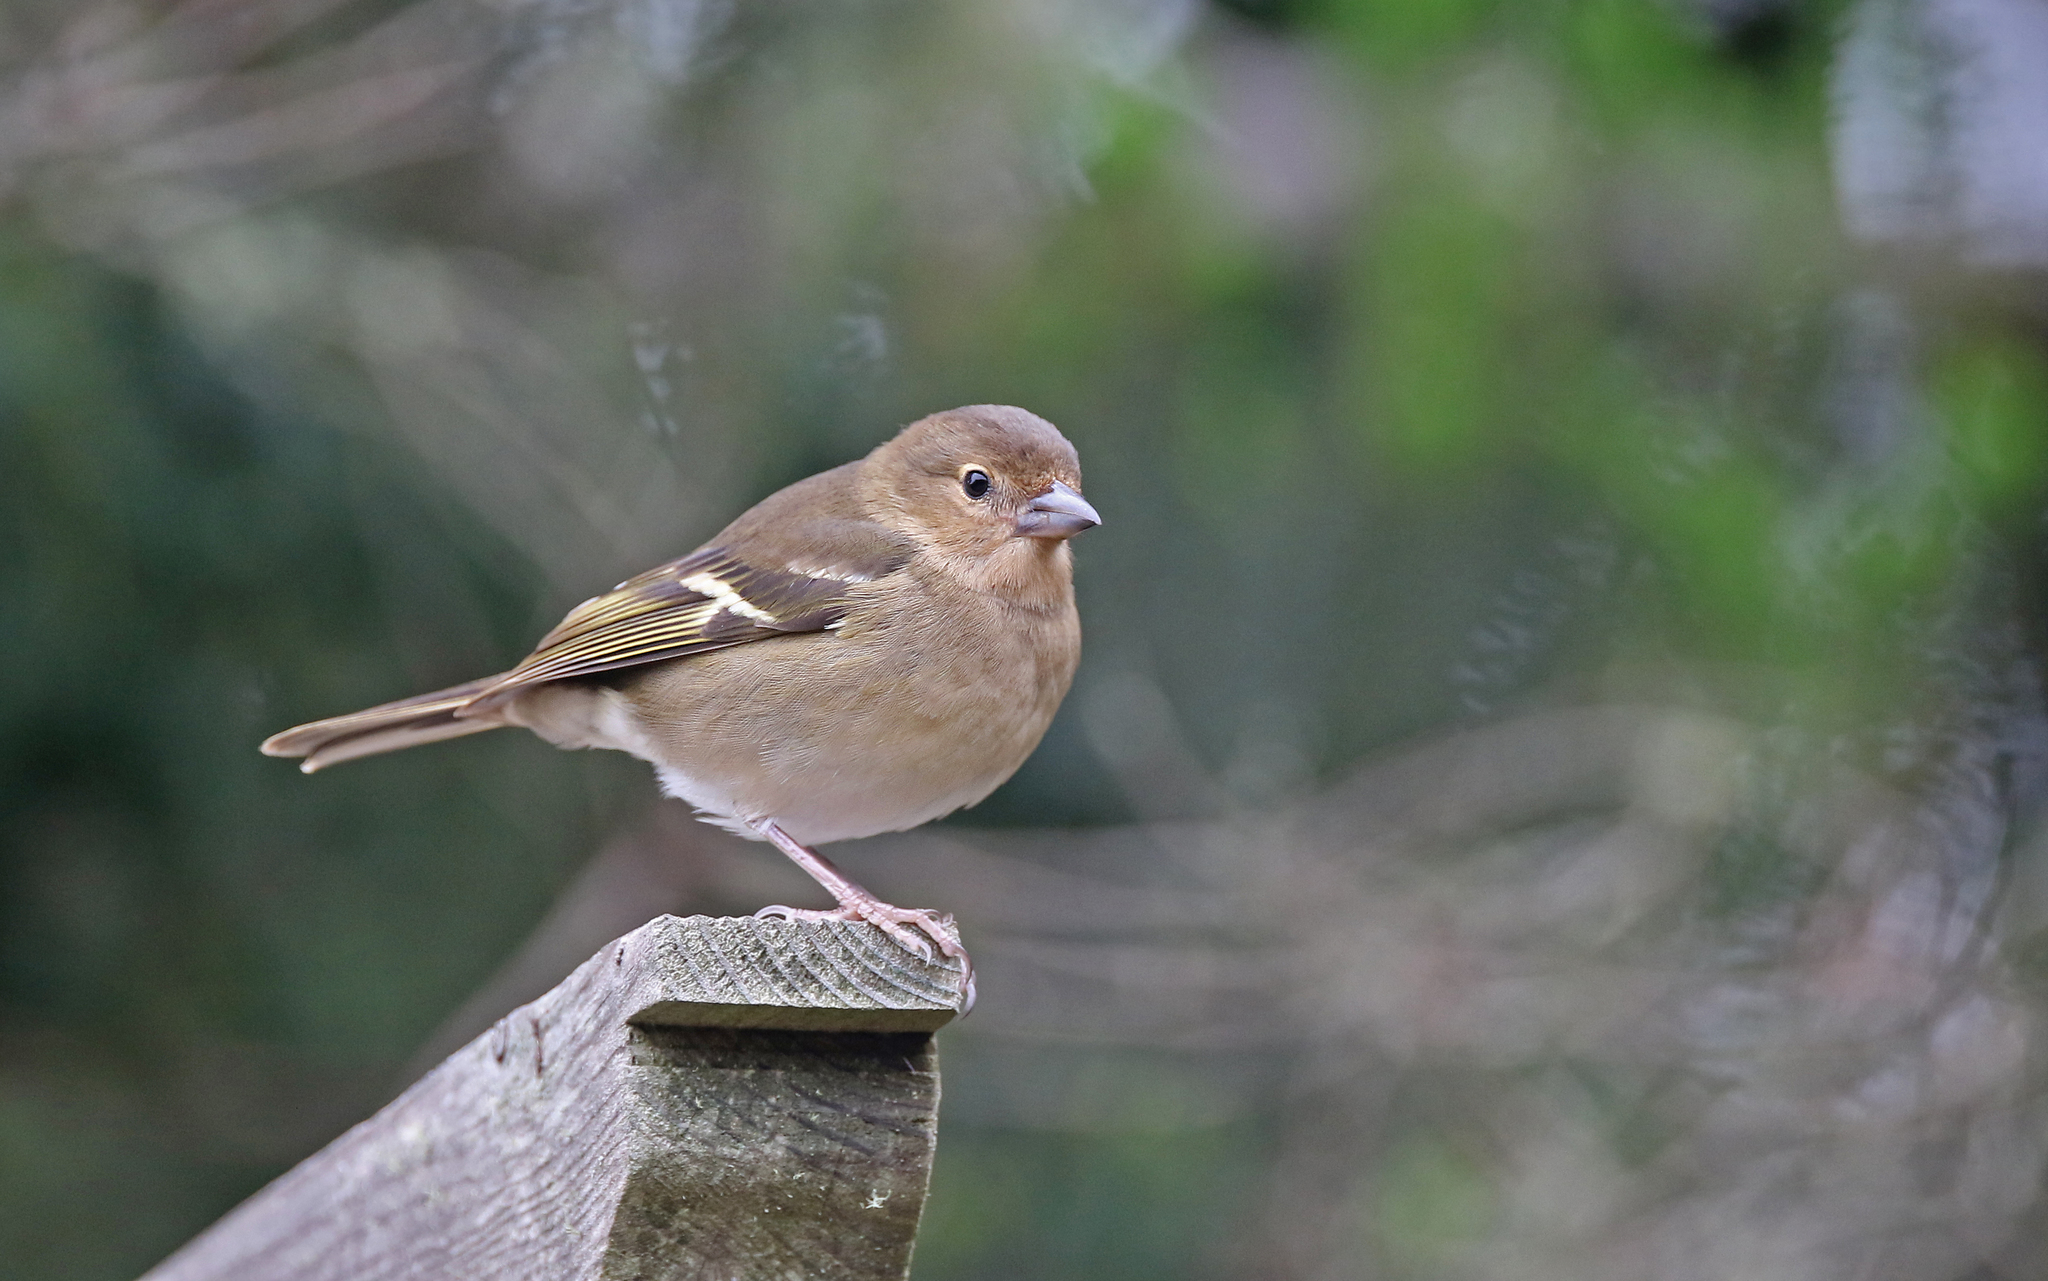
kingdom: Animalia
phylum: Chordata
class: Aves
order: Passeriformes
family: Fringillidae
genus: Fringilla
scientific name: Fringilla canariensis
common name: Canary islands chaffinch
